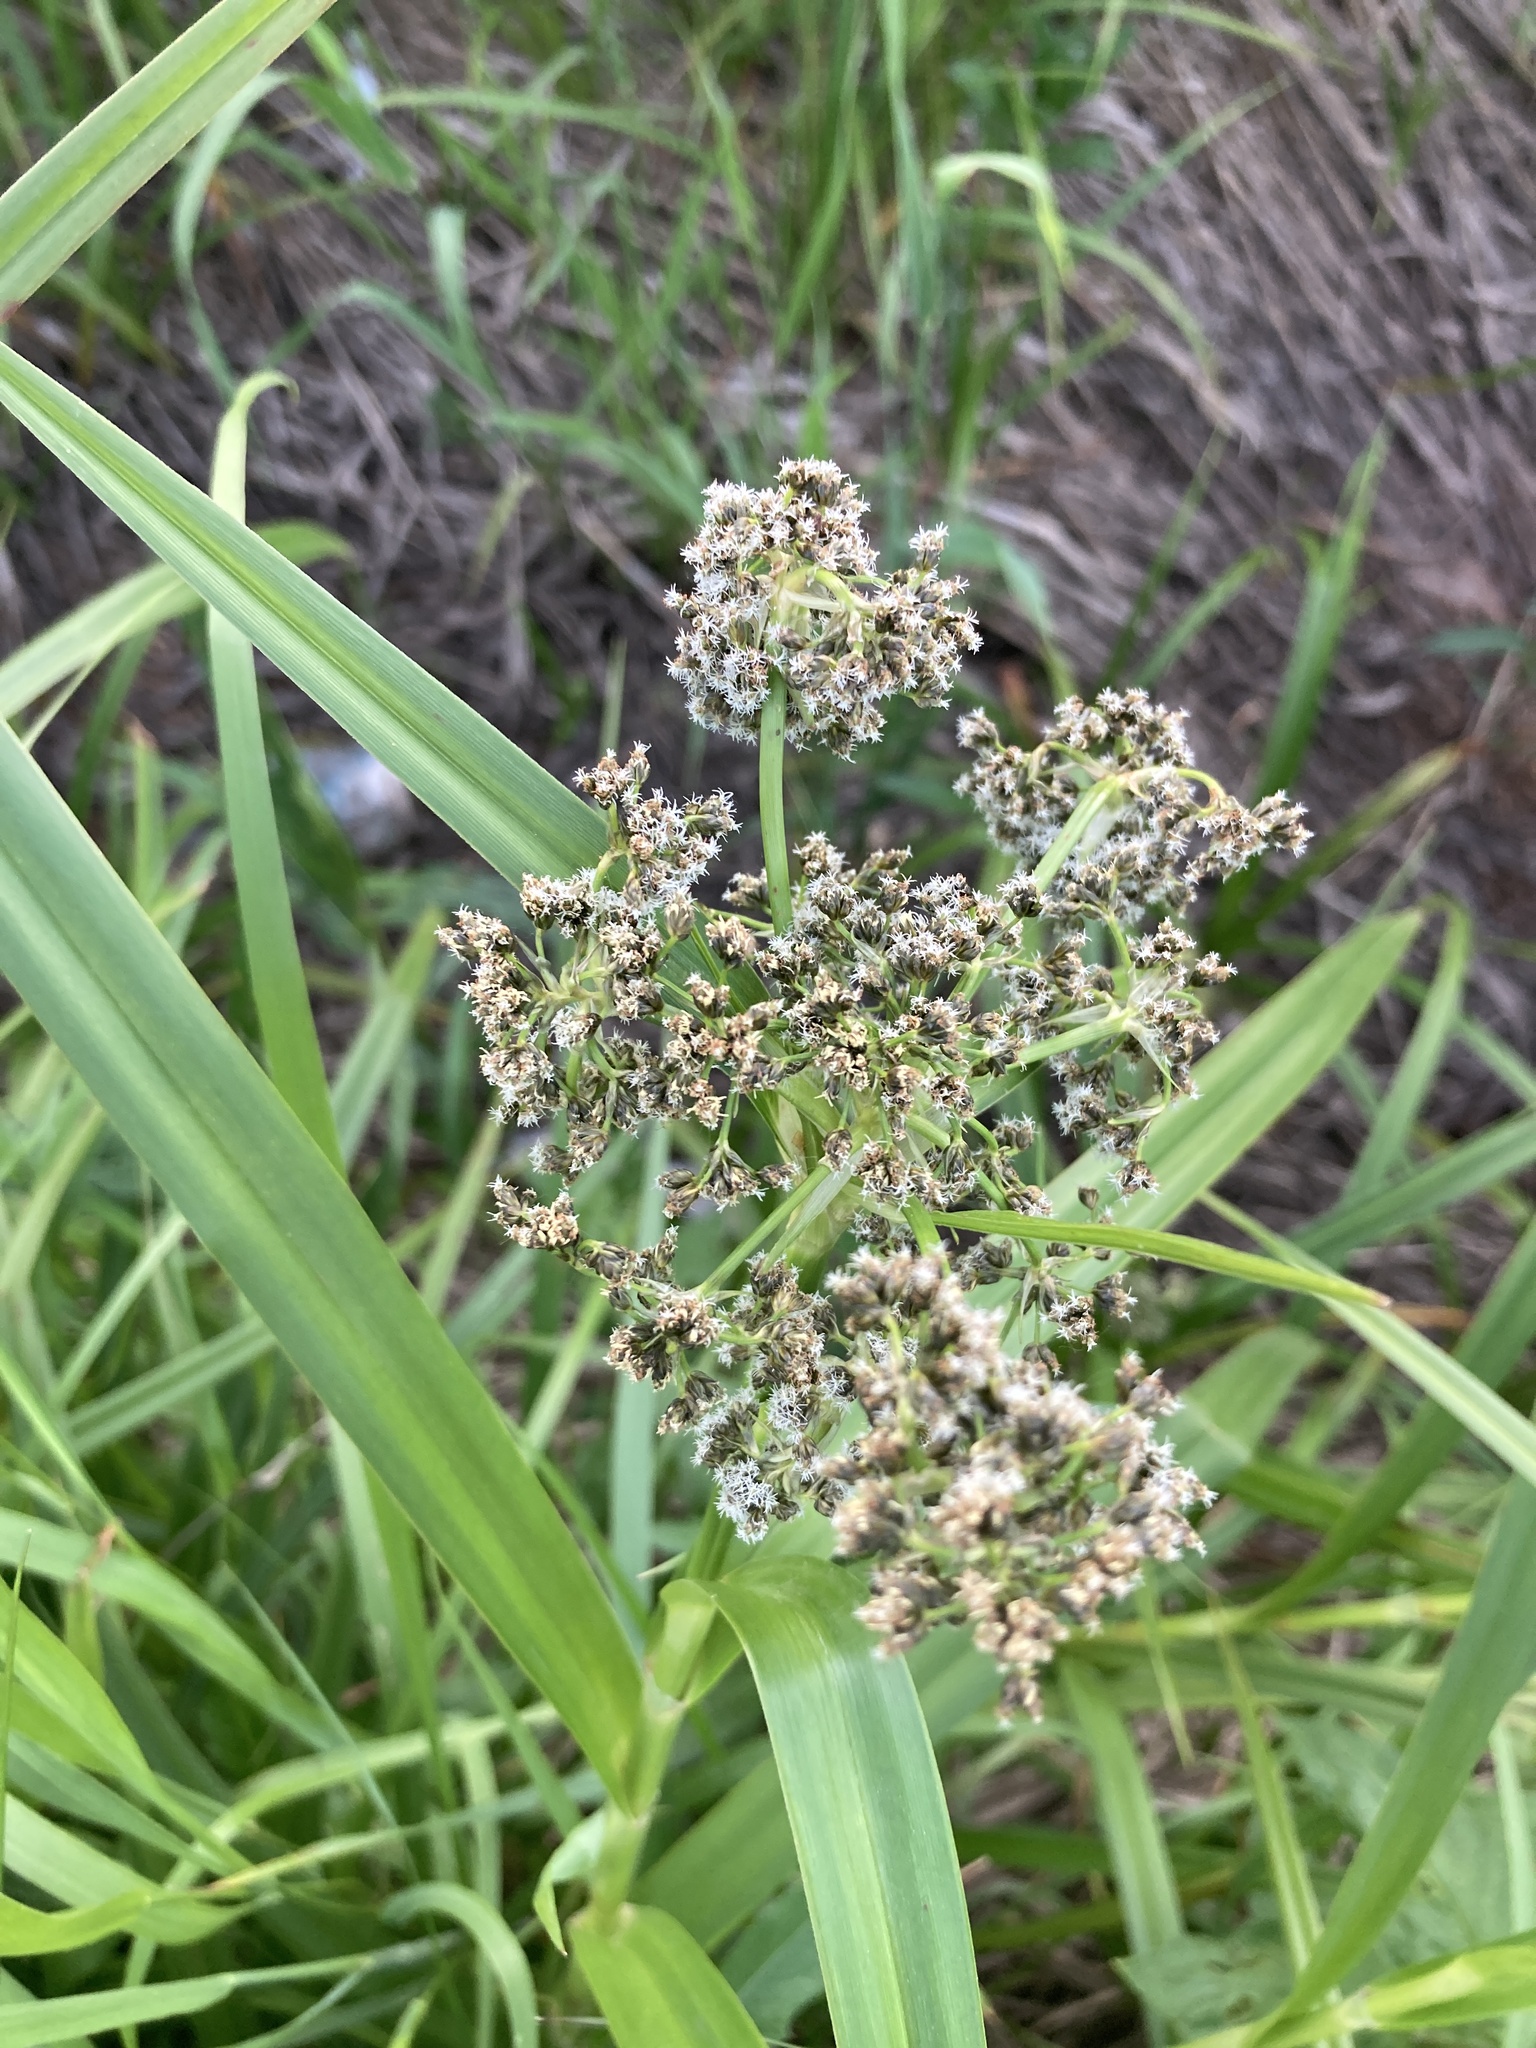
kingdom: Plantae
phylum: Tracheophyta
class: Liliopsida
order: Poales
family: Cyperaceae
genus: Scirpus
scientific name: Scirpus sylvaticus
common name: Wood club-rush
